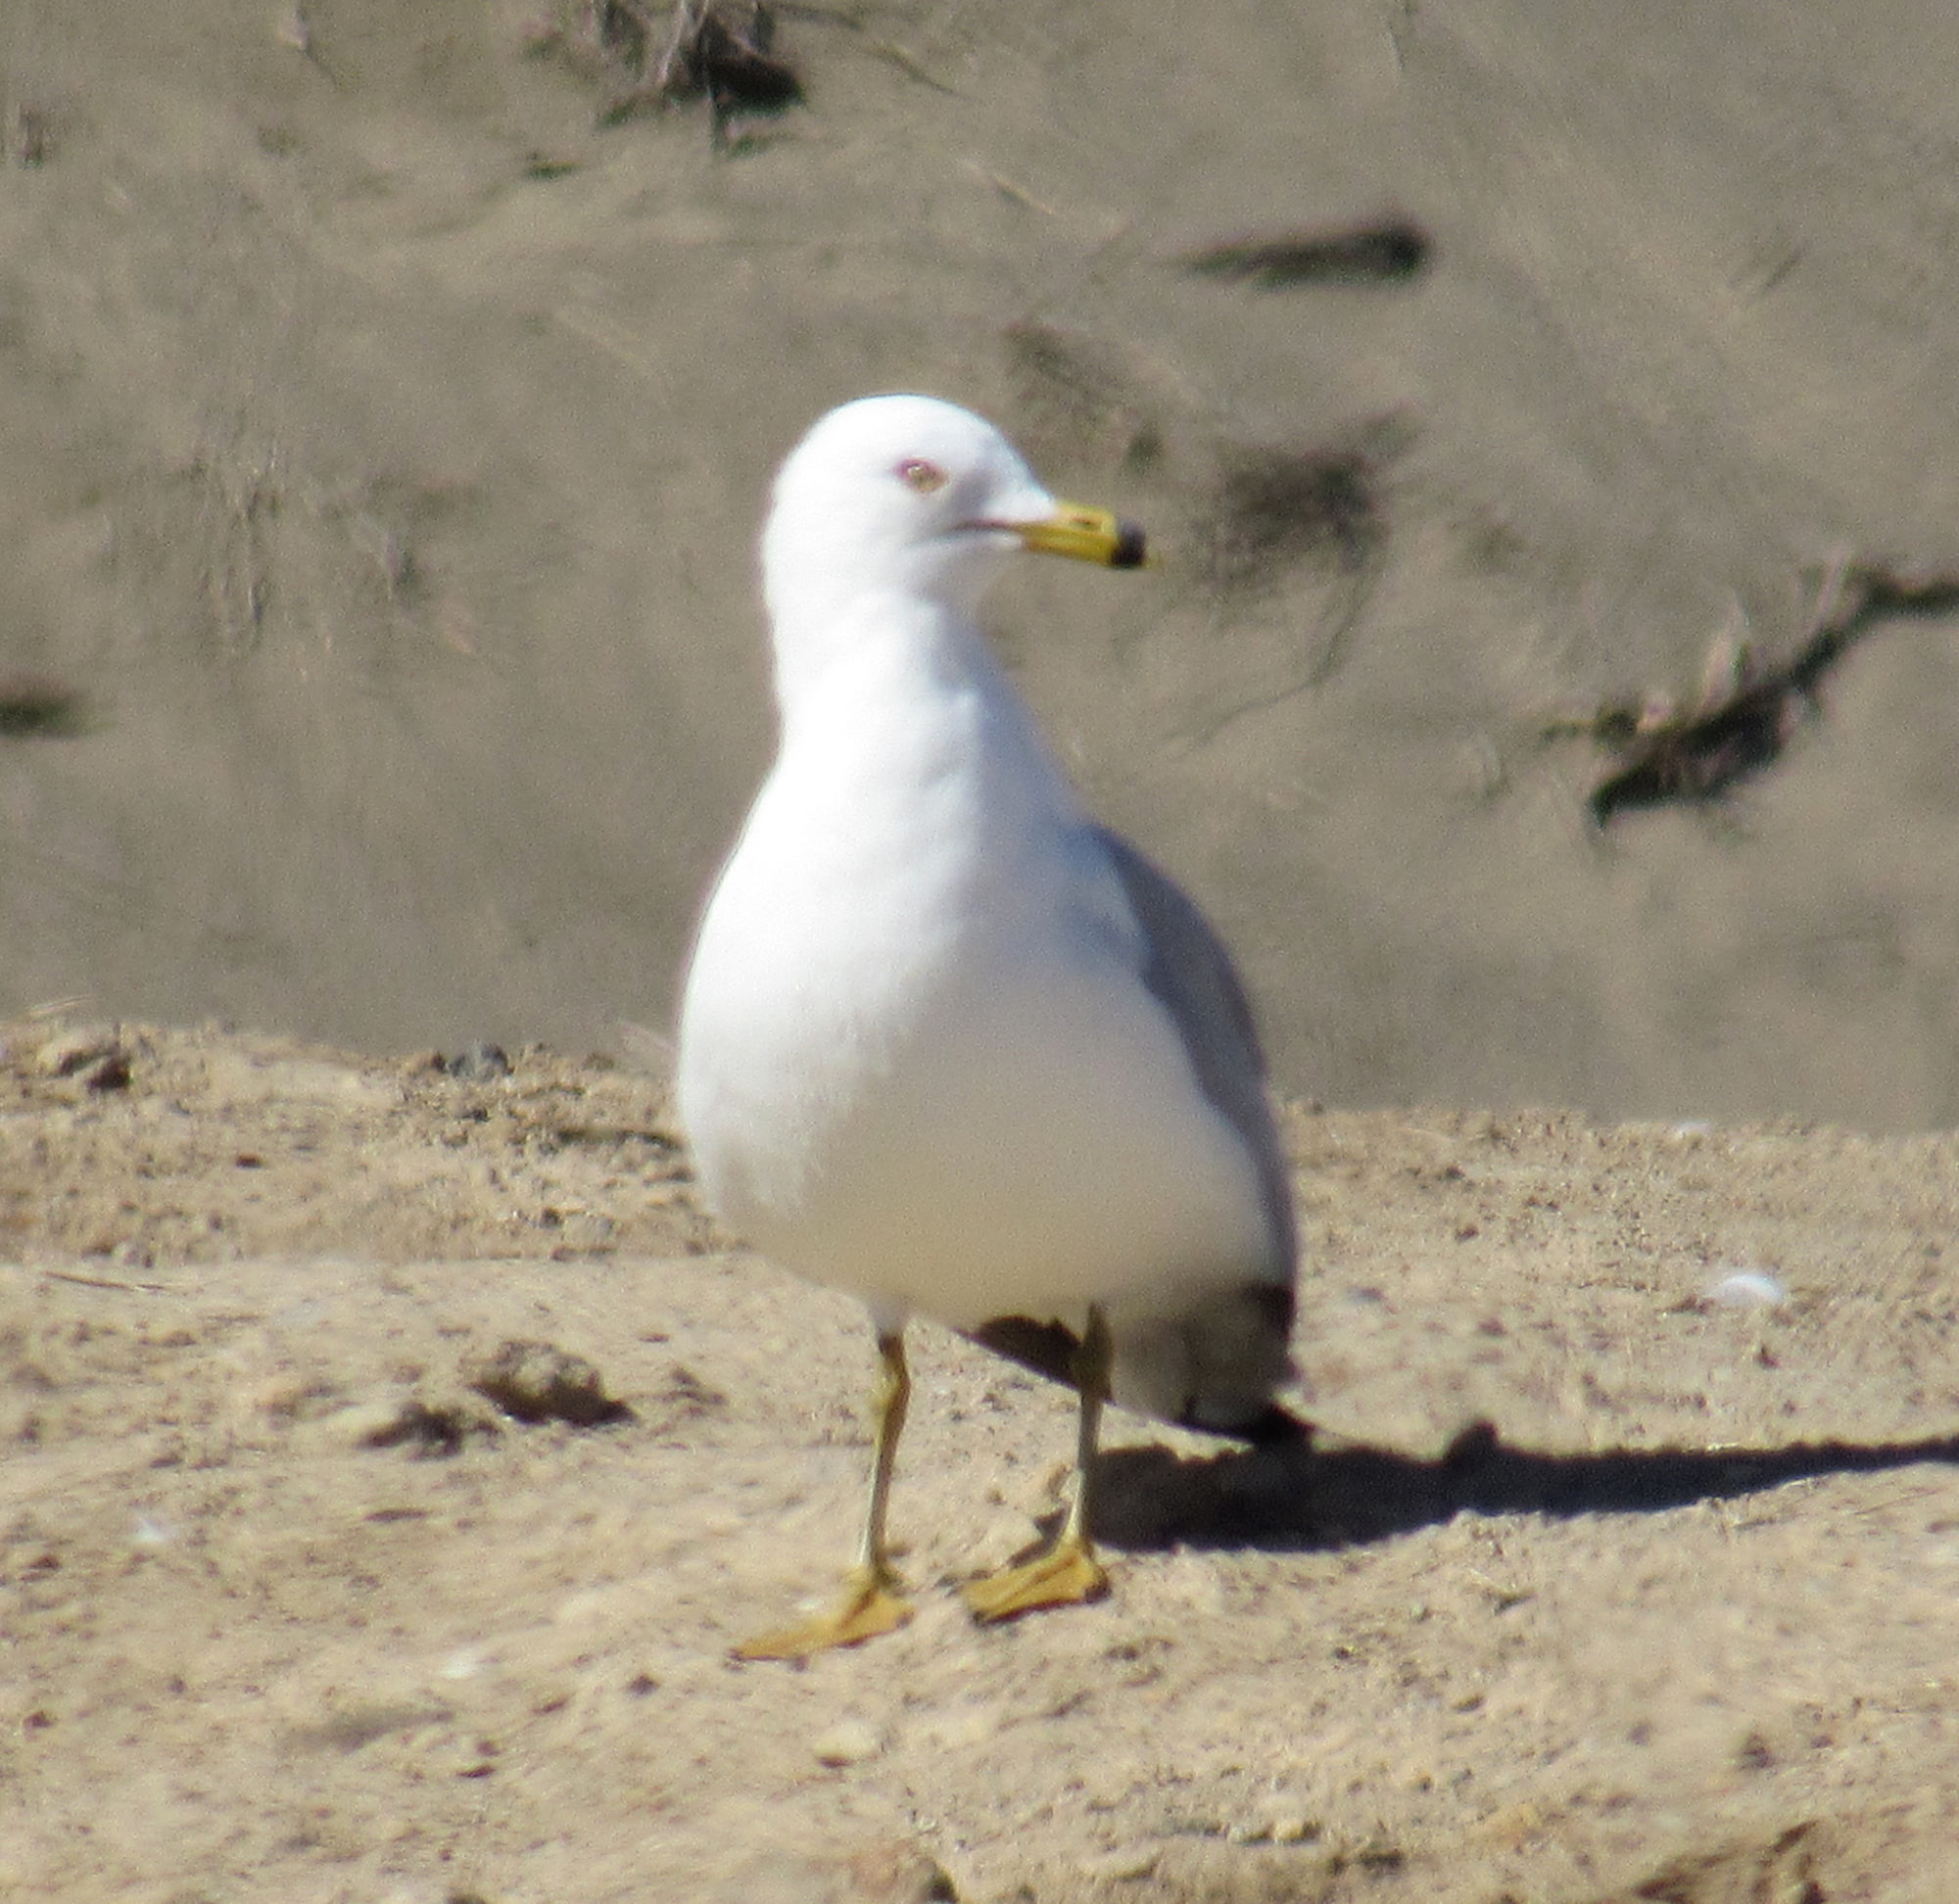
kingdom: Animalia
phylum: Chordata
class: Aves
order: Charadriiformes
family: Laridae
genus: Larus
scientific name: Larus delawarensis
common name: Ring-billed gull
